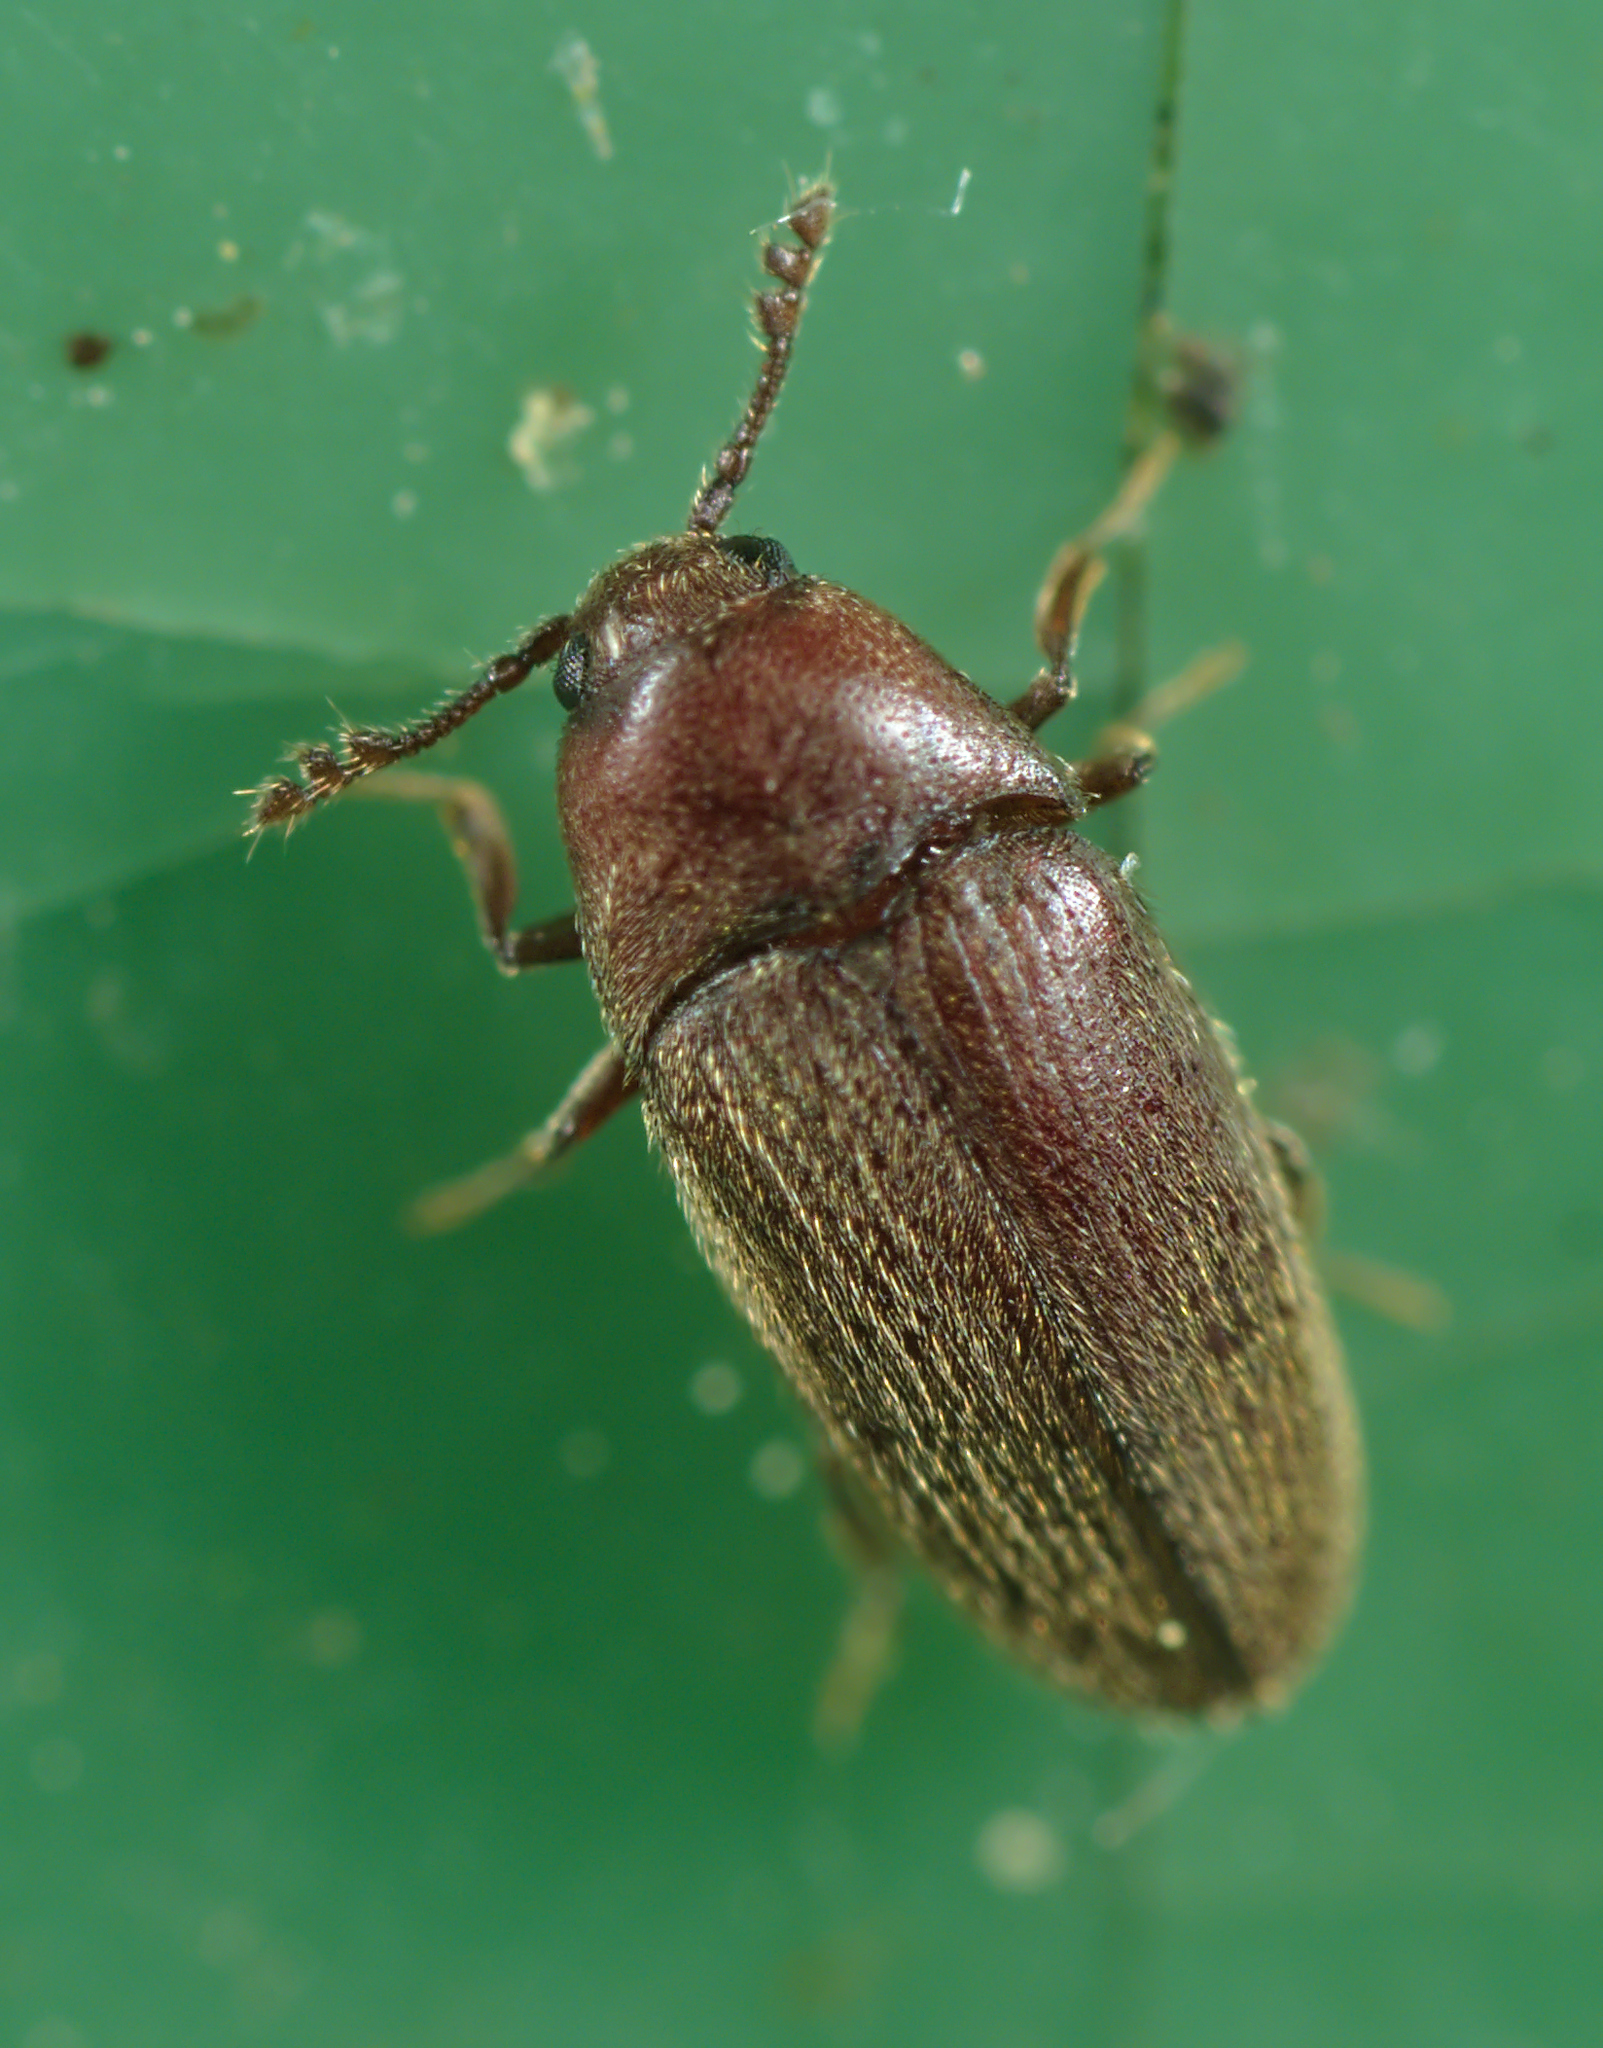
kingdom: Animalia
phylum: Arthropoda
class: Insecta
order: Coleoptera
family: Throscidae
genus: Trixagus
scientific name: Trixagus dermestoides
